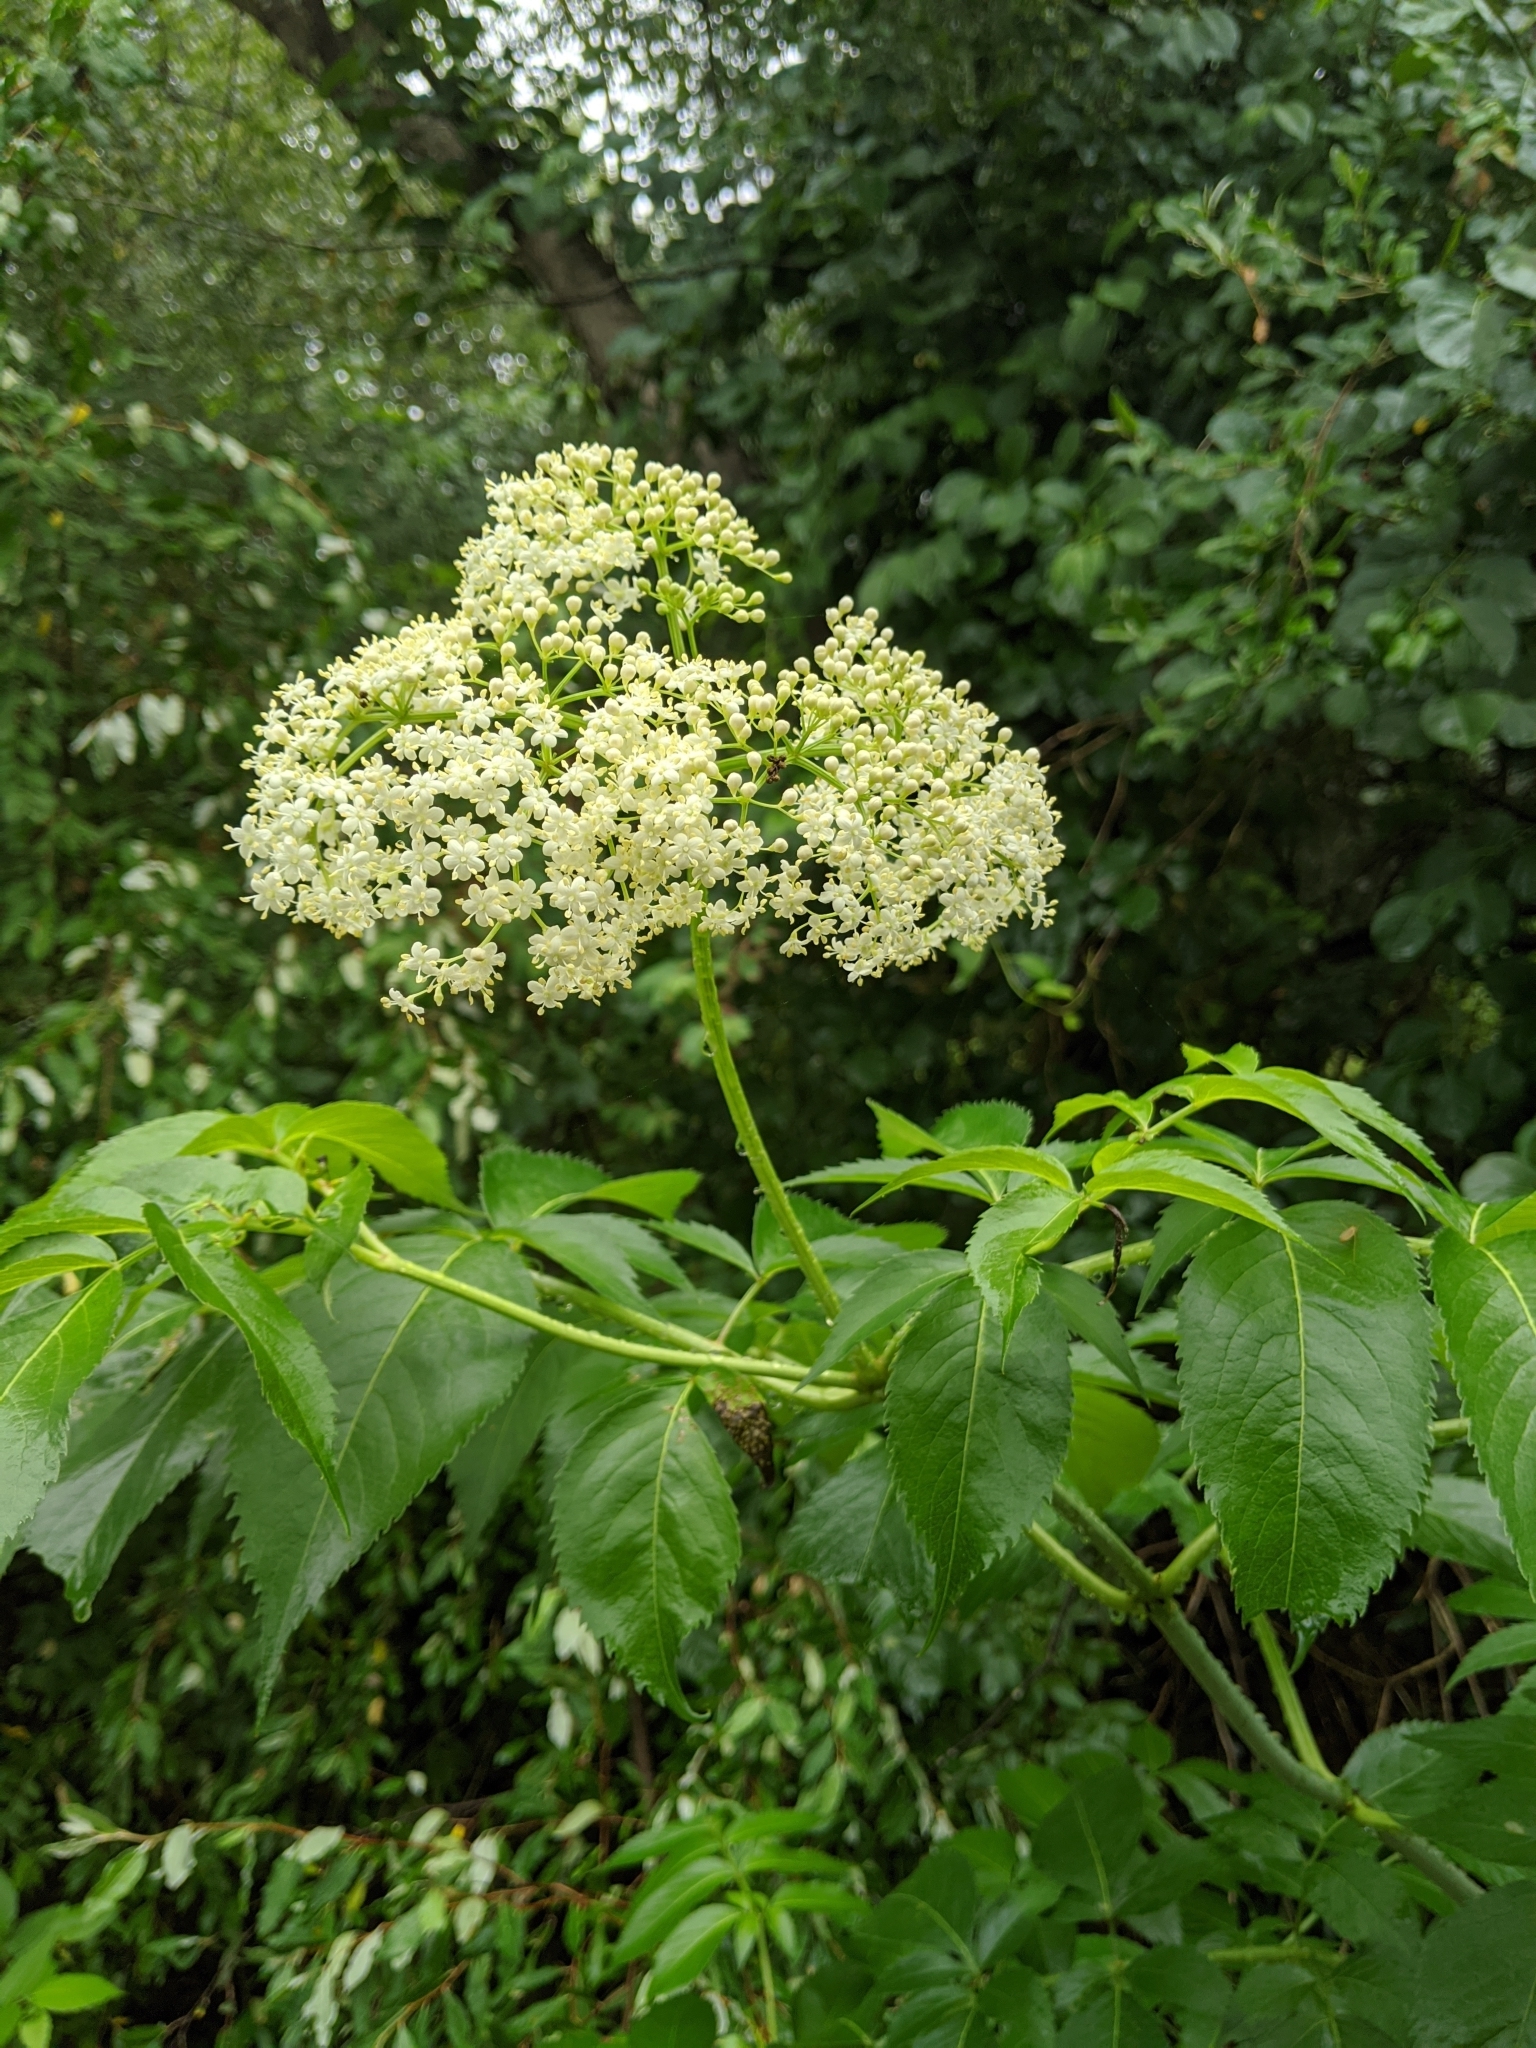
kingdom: Plantae
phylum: Tracheophyta
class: Magnoliopsida
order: Dipsacales
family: Viburnaceae
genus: Sambucus
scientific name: Sambucus canadensis
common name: American elder
